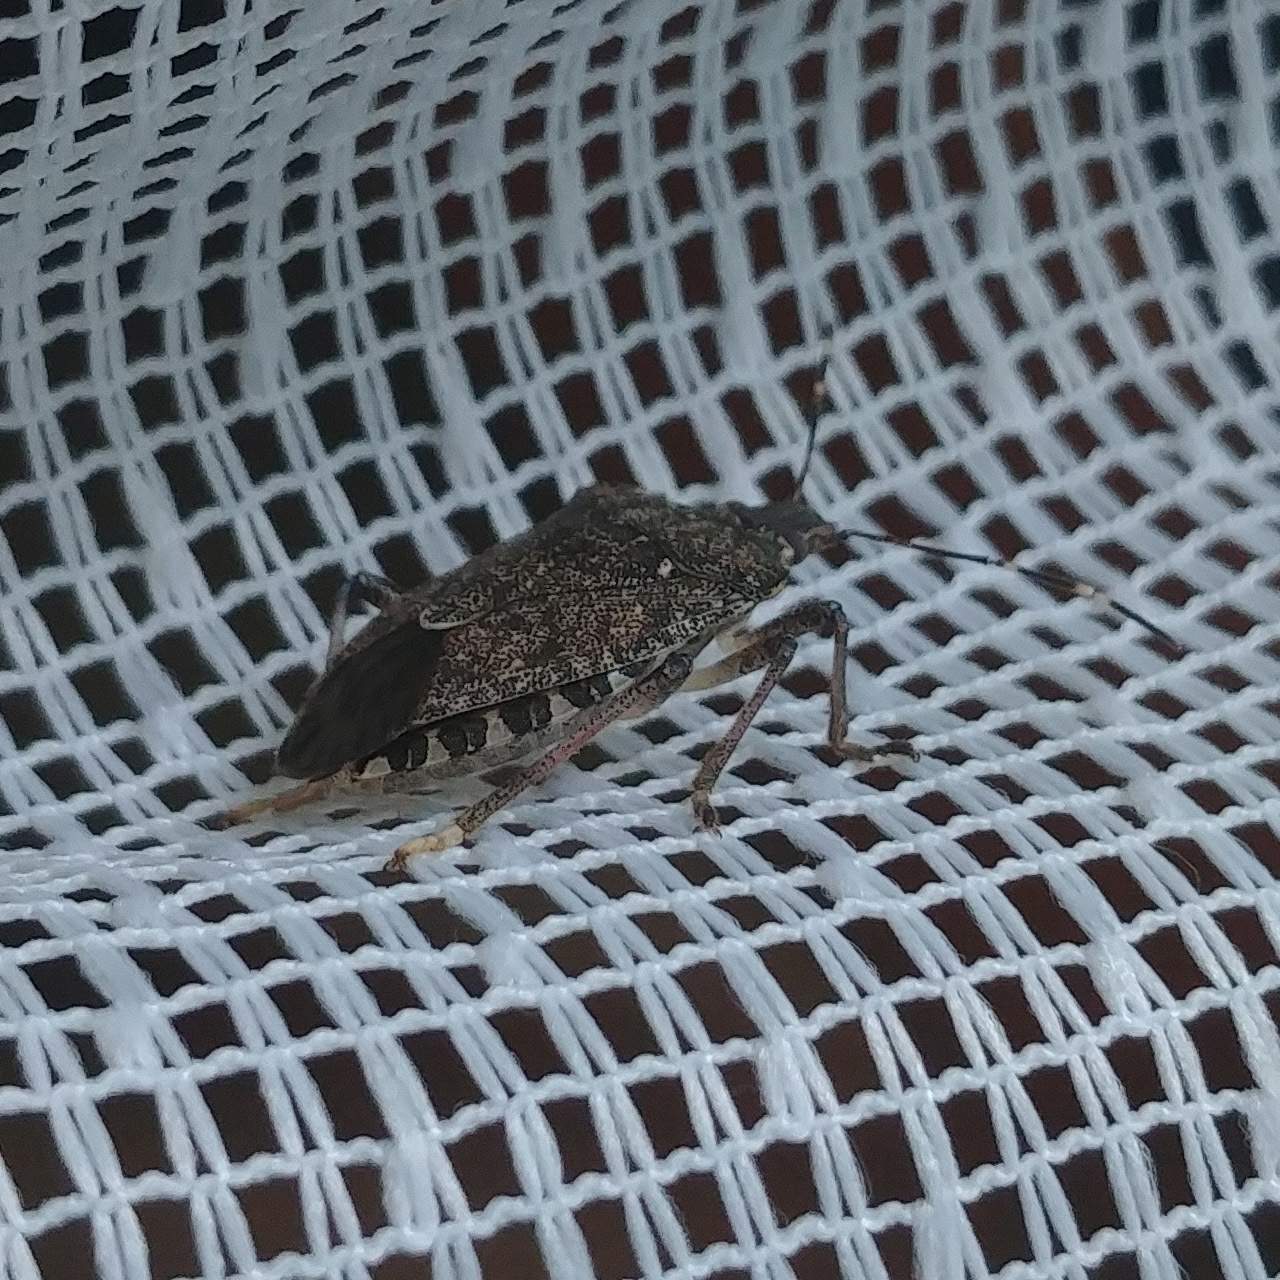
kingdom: Animalia
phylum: Arthropoda
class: Insecta
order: Hemiptera
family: Pentatomidae
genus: Halyomorpha
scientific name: Halyomorpha halys
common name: Brown marmorated stink bug
